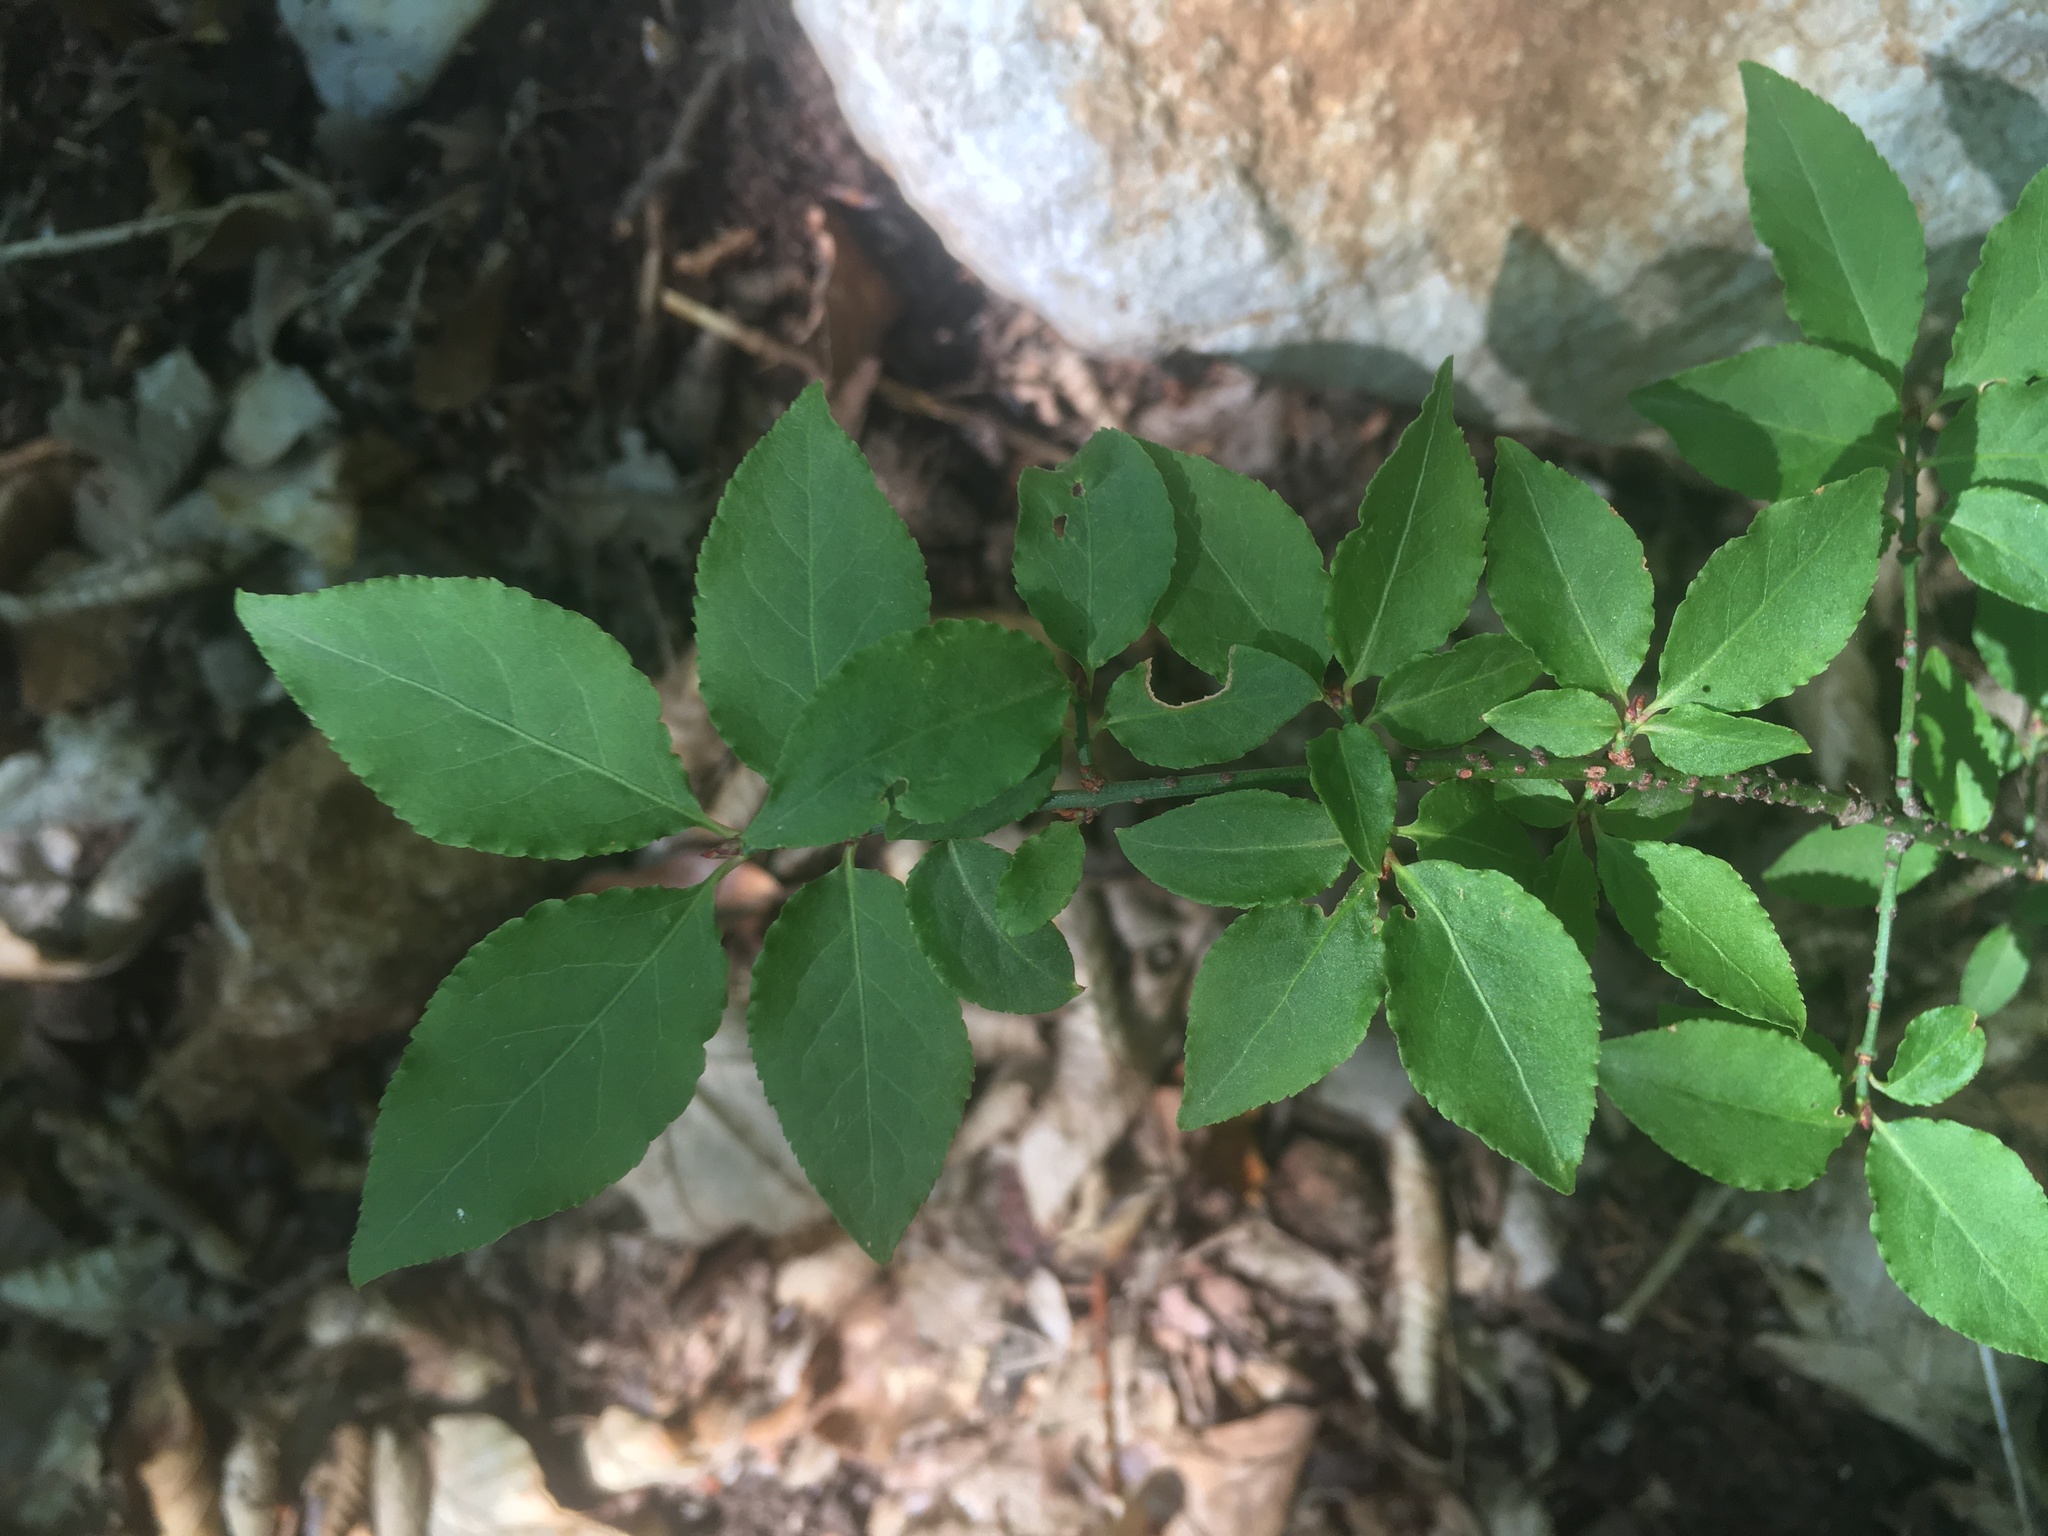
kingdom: Plantae
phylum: Tracheophyta
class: Magnoliopsida
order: Celastrales
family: Celastraceae
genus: Euonymus
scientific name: Euonymus verrucosus
